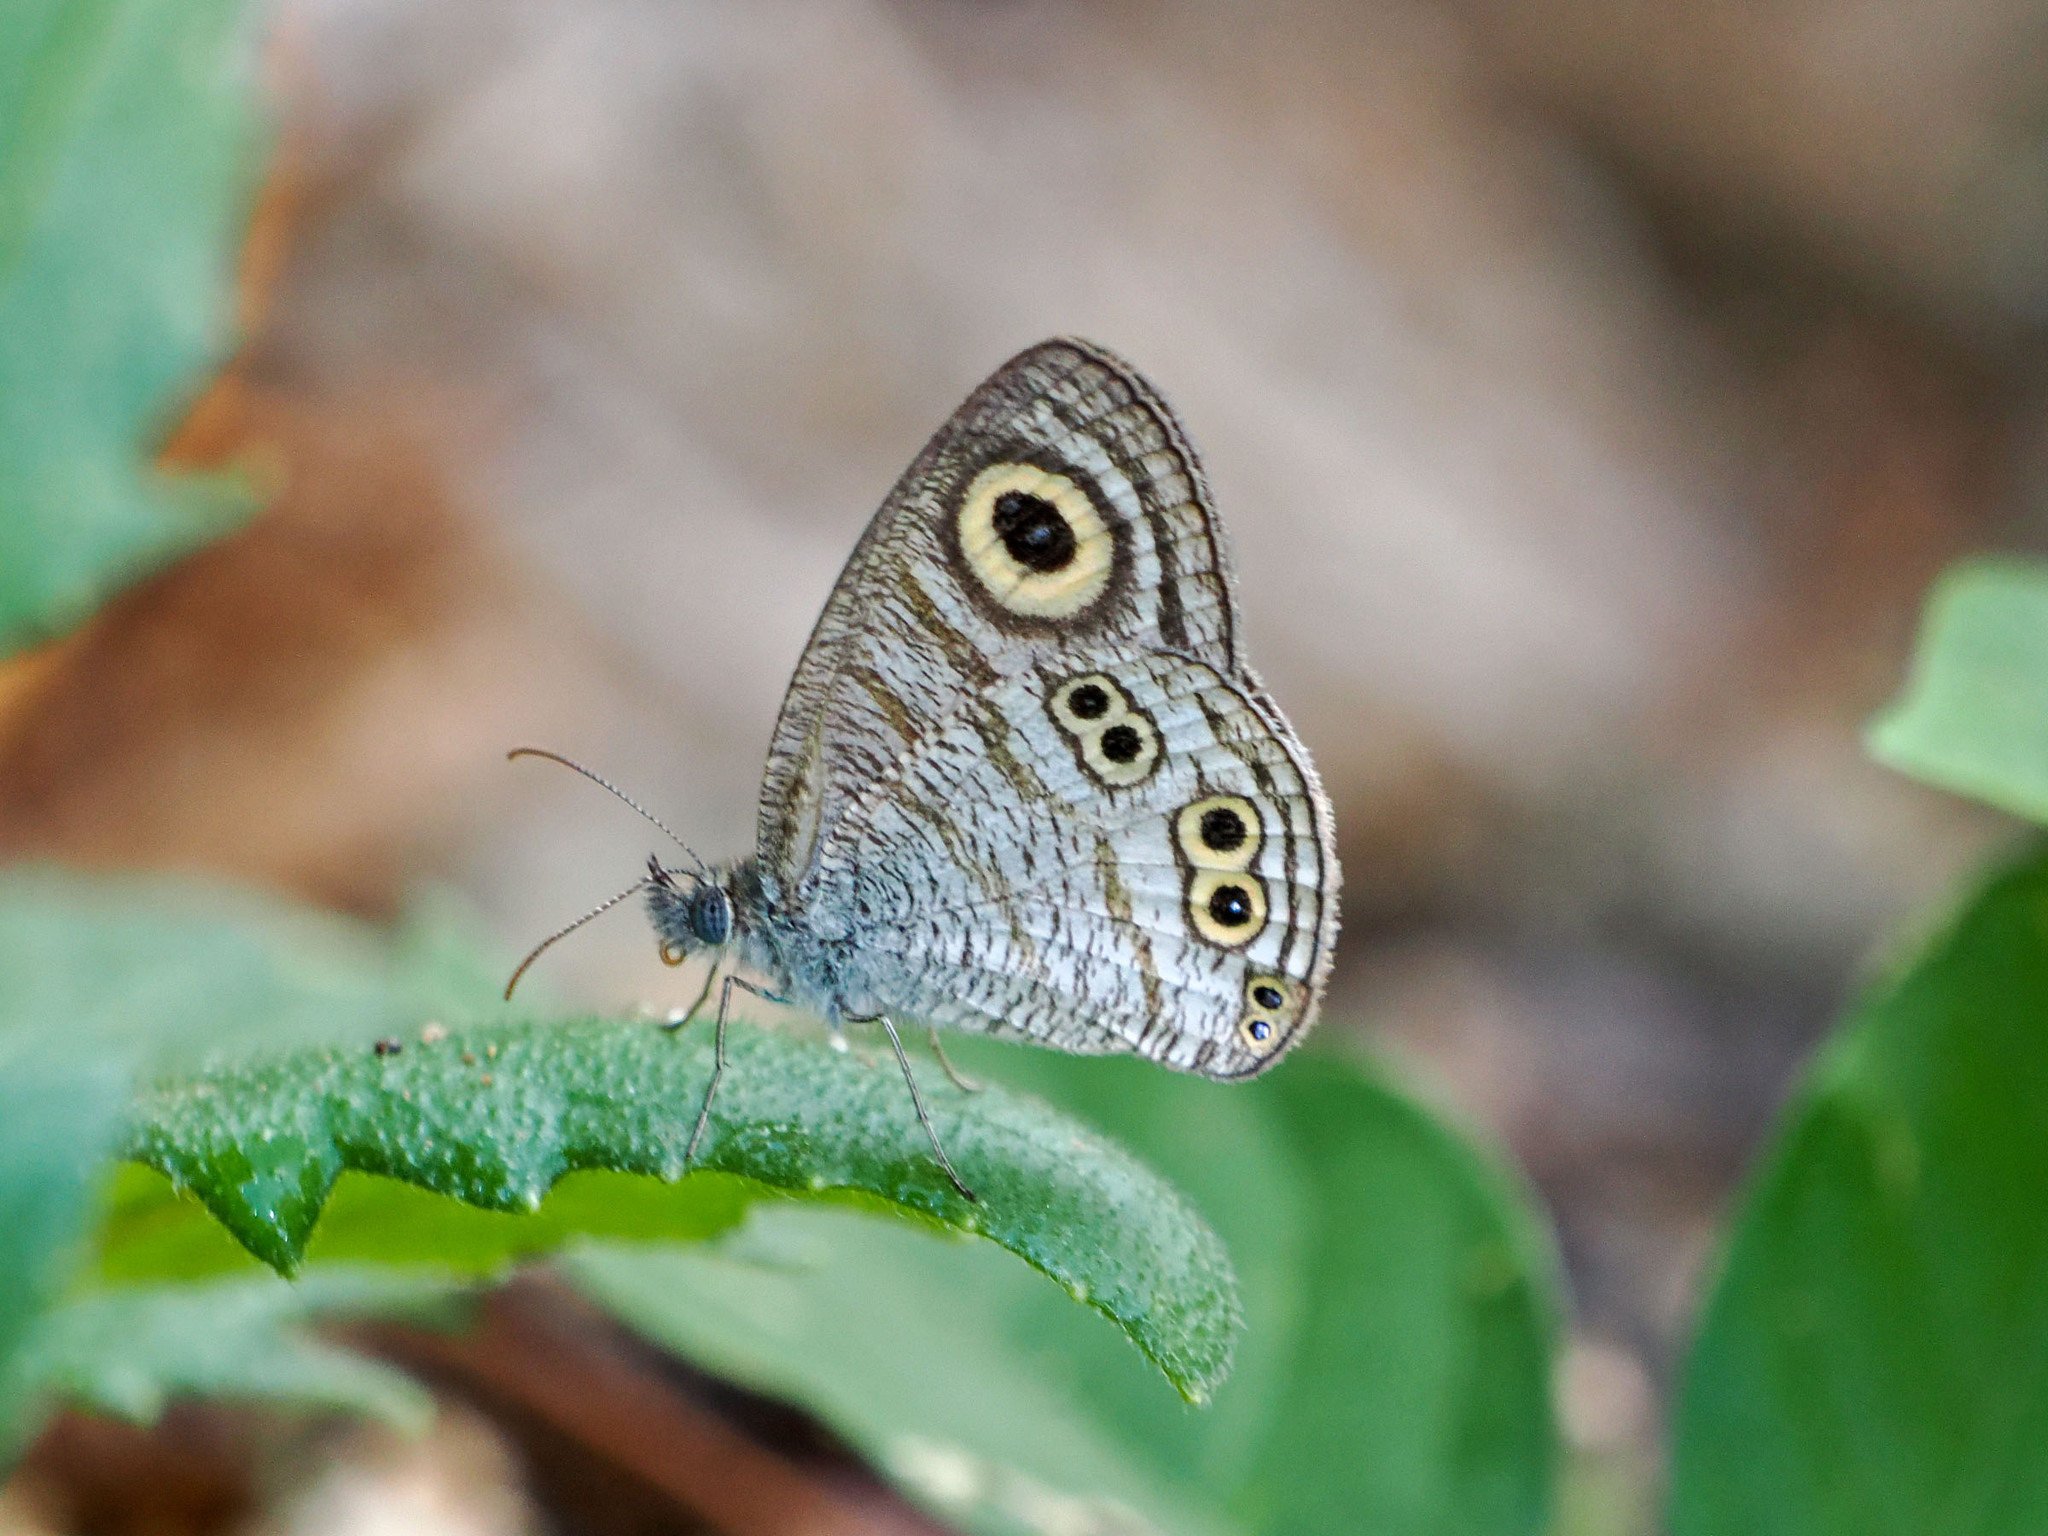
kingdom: Animalia
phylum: Arthropoda
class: Insecta
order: Lepidoptera
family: Nymphalidae
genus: Ypthima
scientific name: Ypthima stellera
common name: Philippine five-ring
